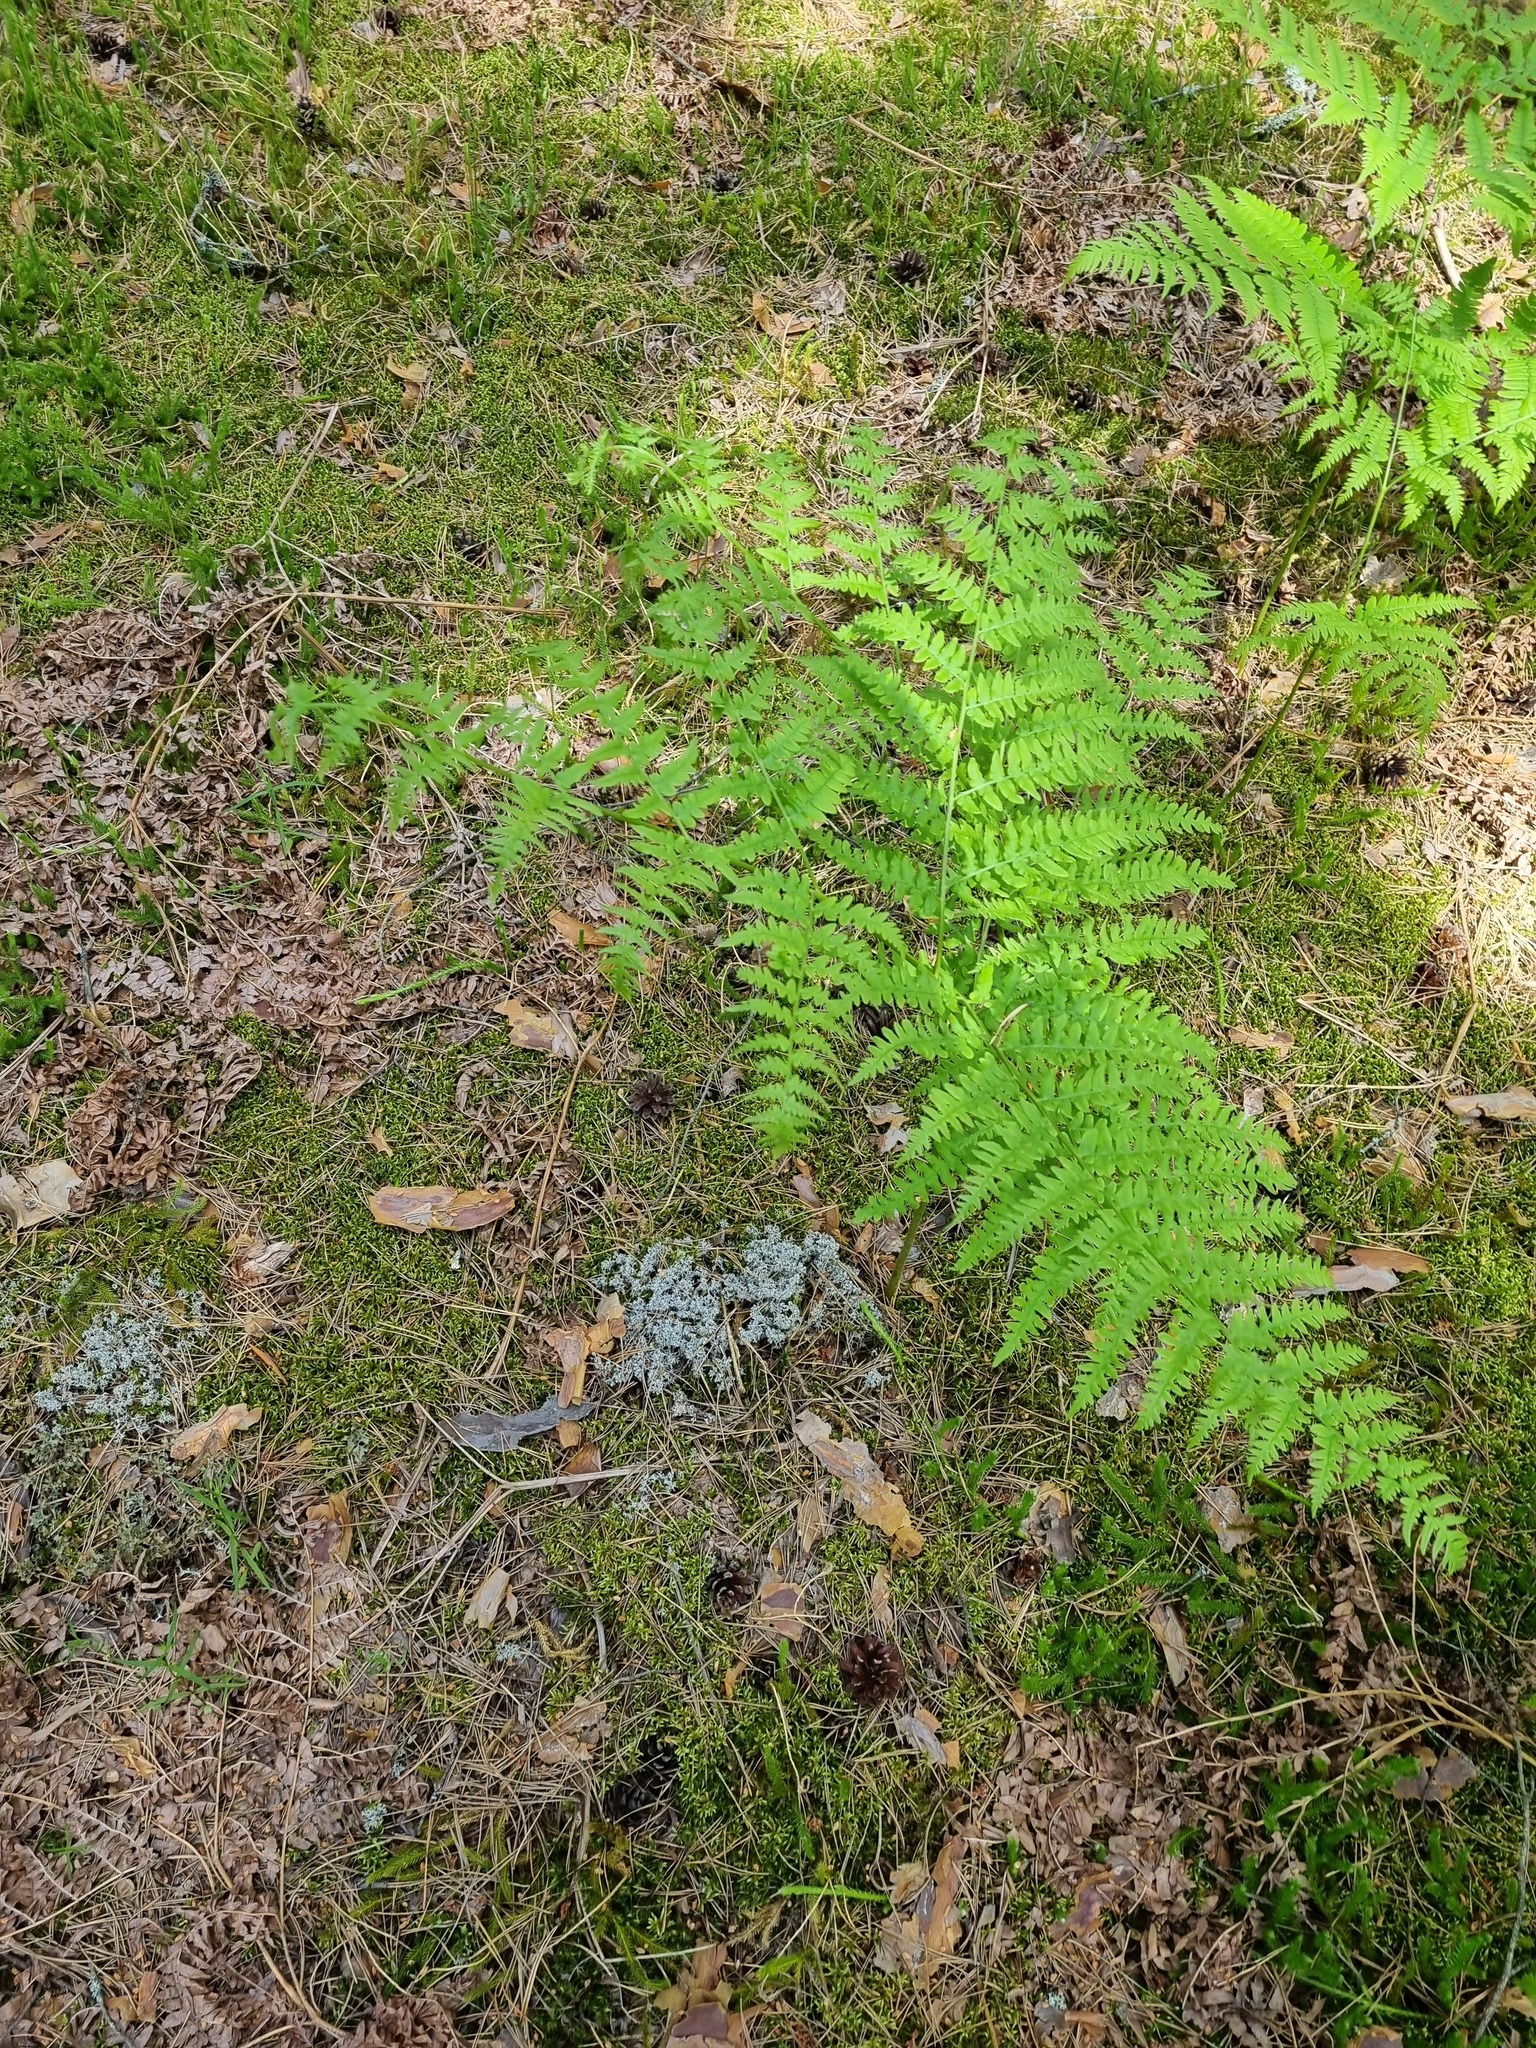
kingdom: Plantae
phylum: Tracheophyta
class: Polypodiopsida
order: Polypodiales
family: Dennstaedtiaceae
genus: Pteridium
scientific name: Pteridium aquilinum
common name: Bracken
